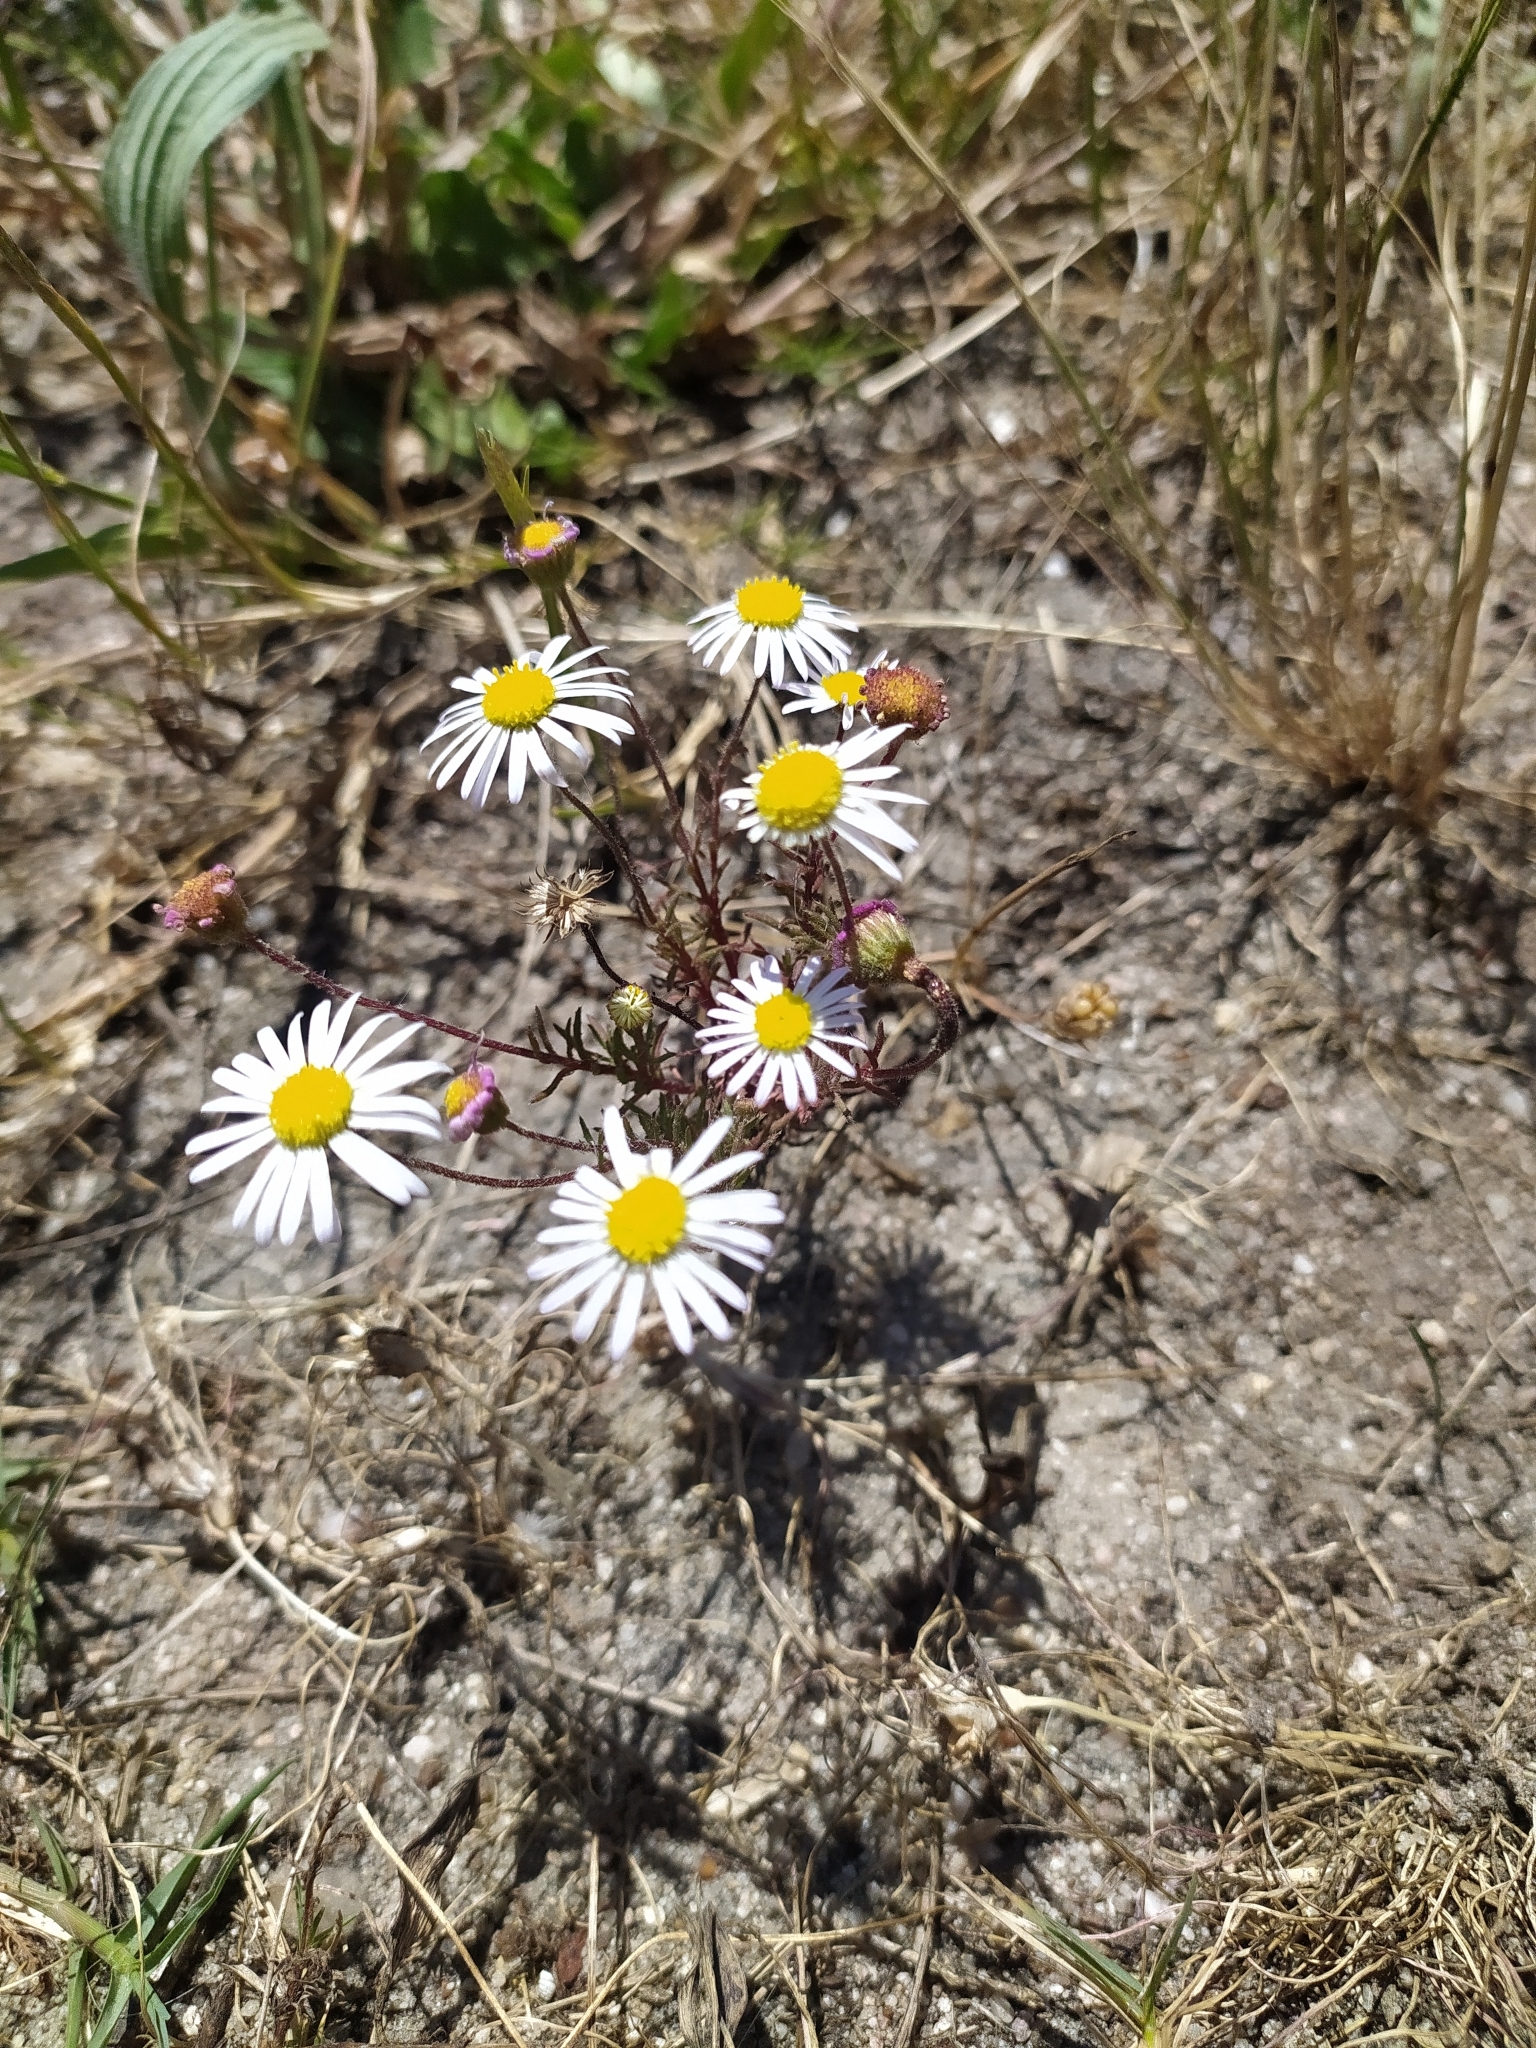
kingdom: Plantae
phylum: Tracheophyta
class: Magnoliopsida
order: Asterales
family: Asteraceae
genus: Felicia
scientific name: Felicia tenella
